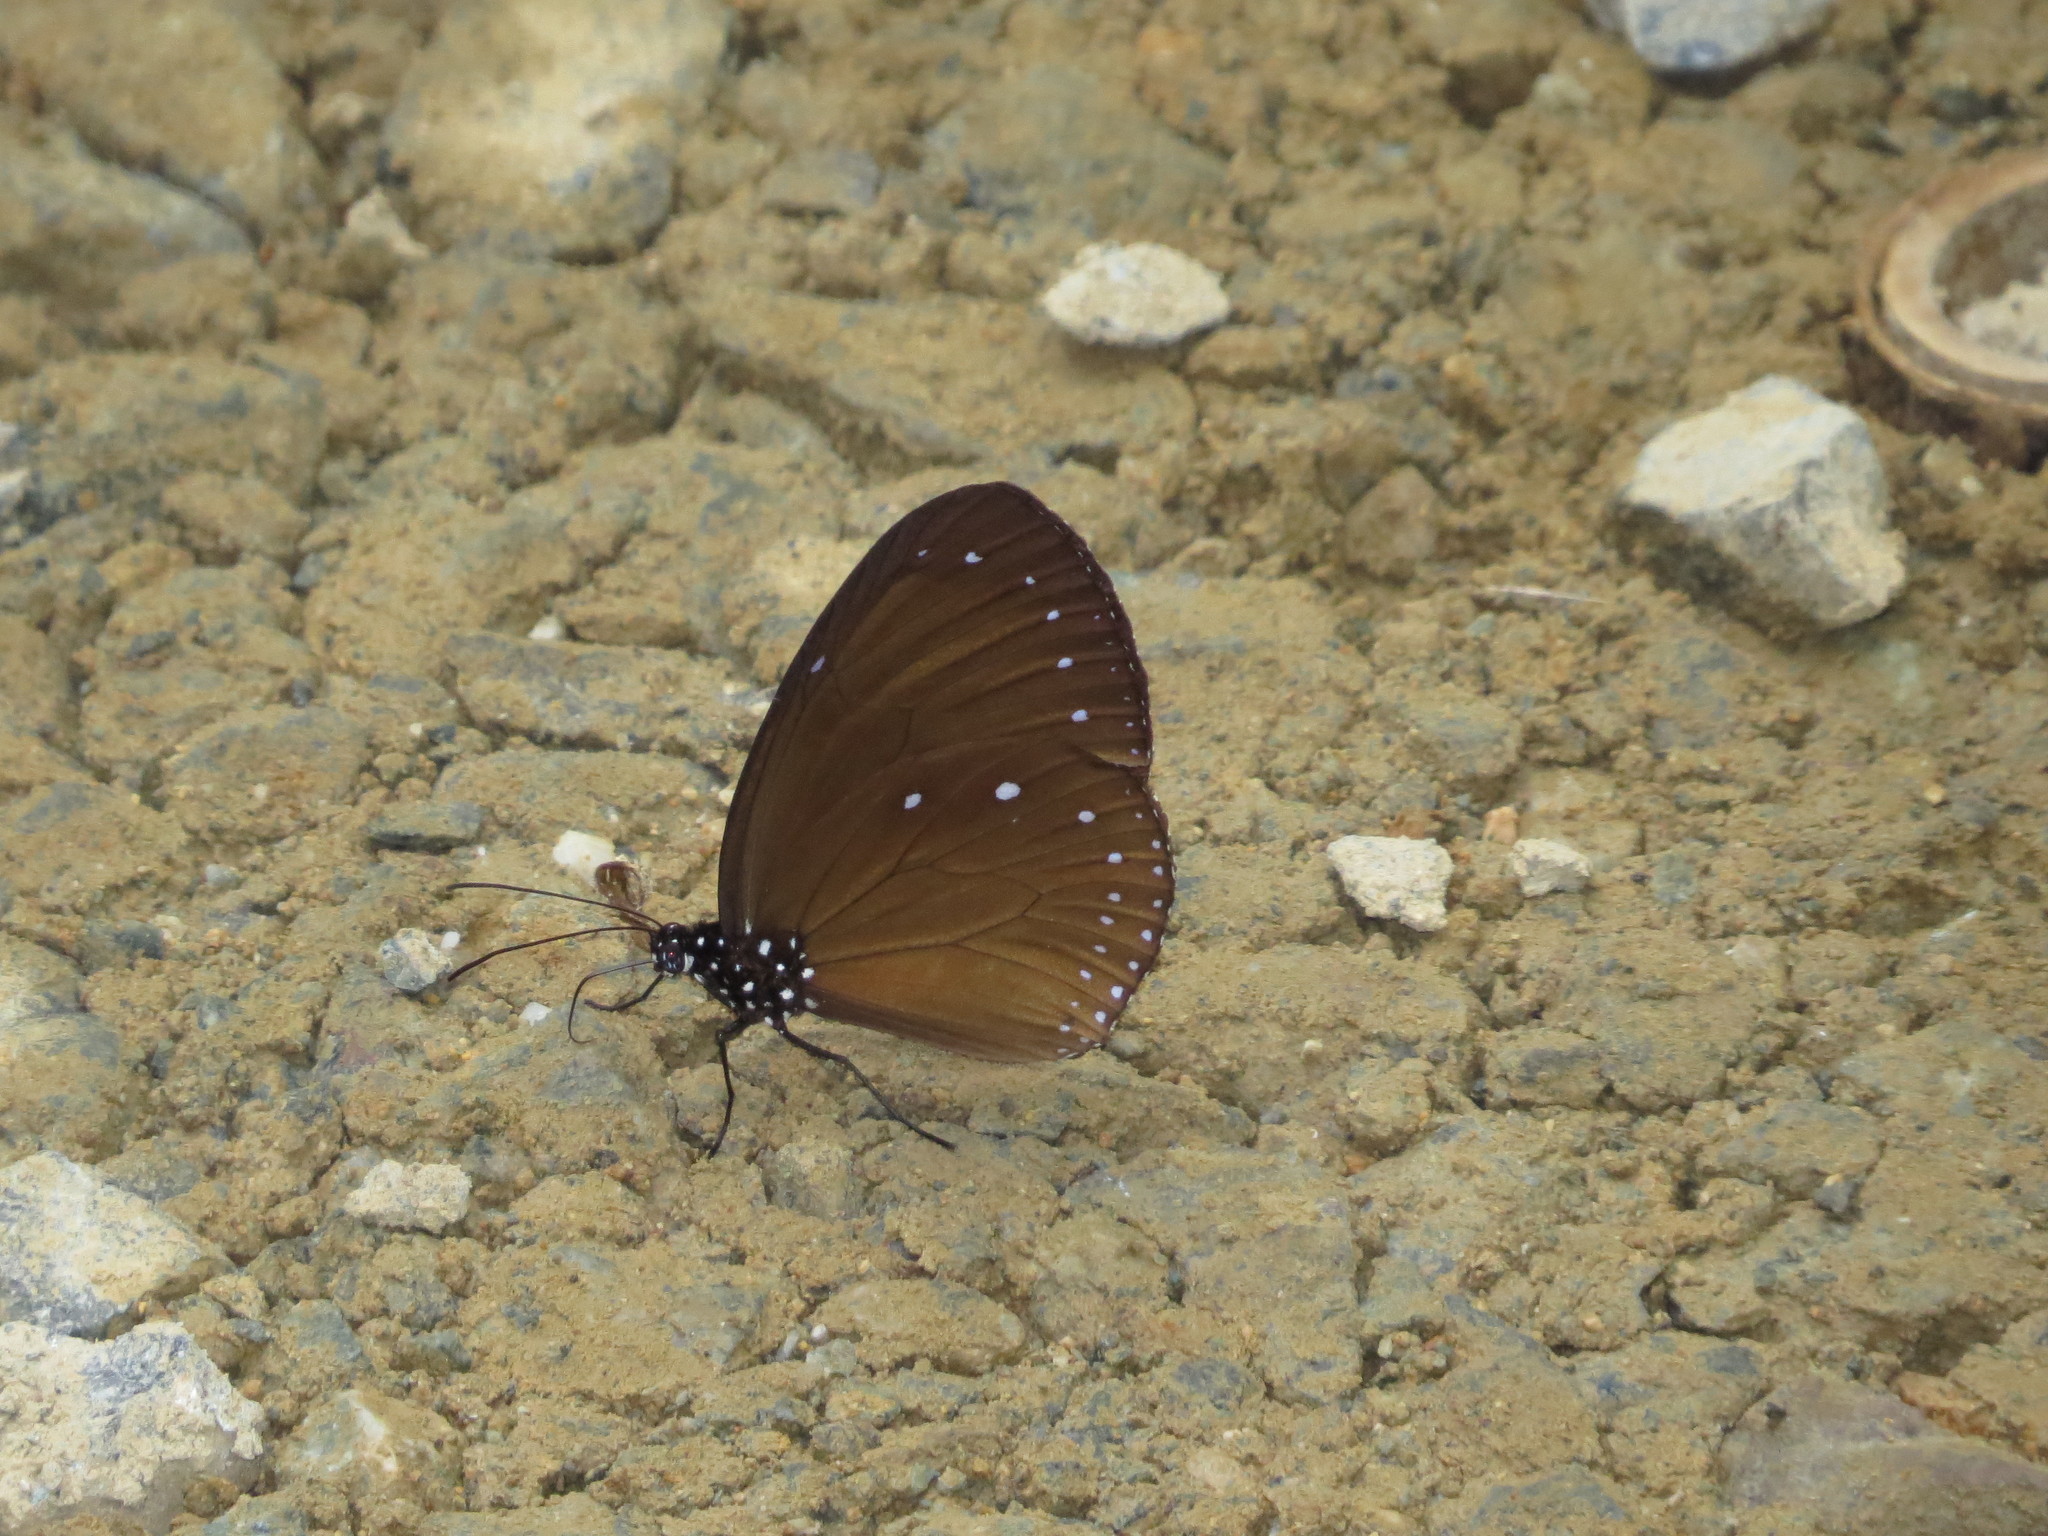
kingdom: Animalia
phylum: Arthropoda
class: Insecta
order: Lepidoptera
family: Nymphalidae
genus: Euploea
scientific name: Euploea eunice
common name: Blue-banded king crow butterfly
